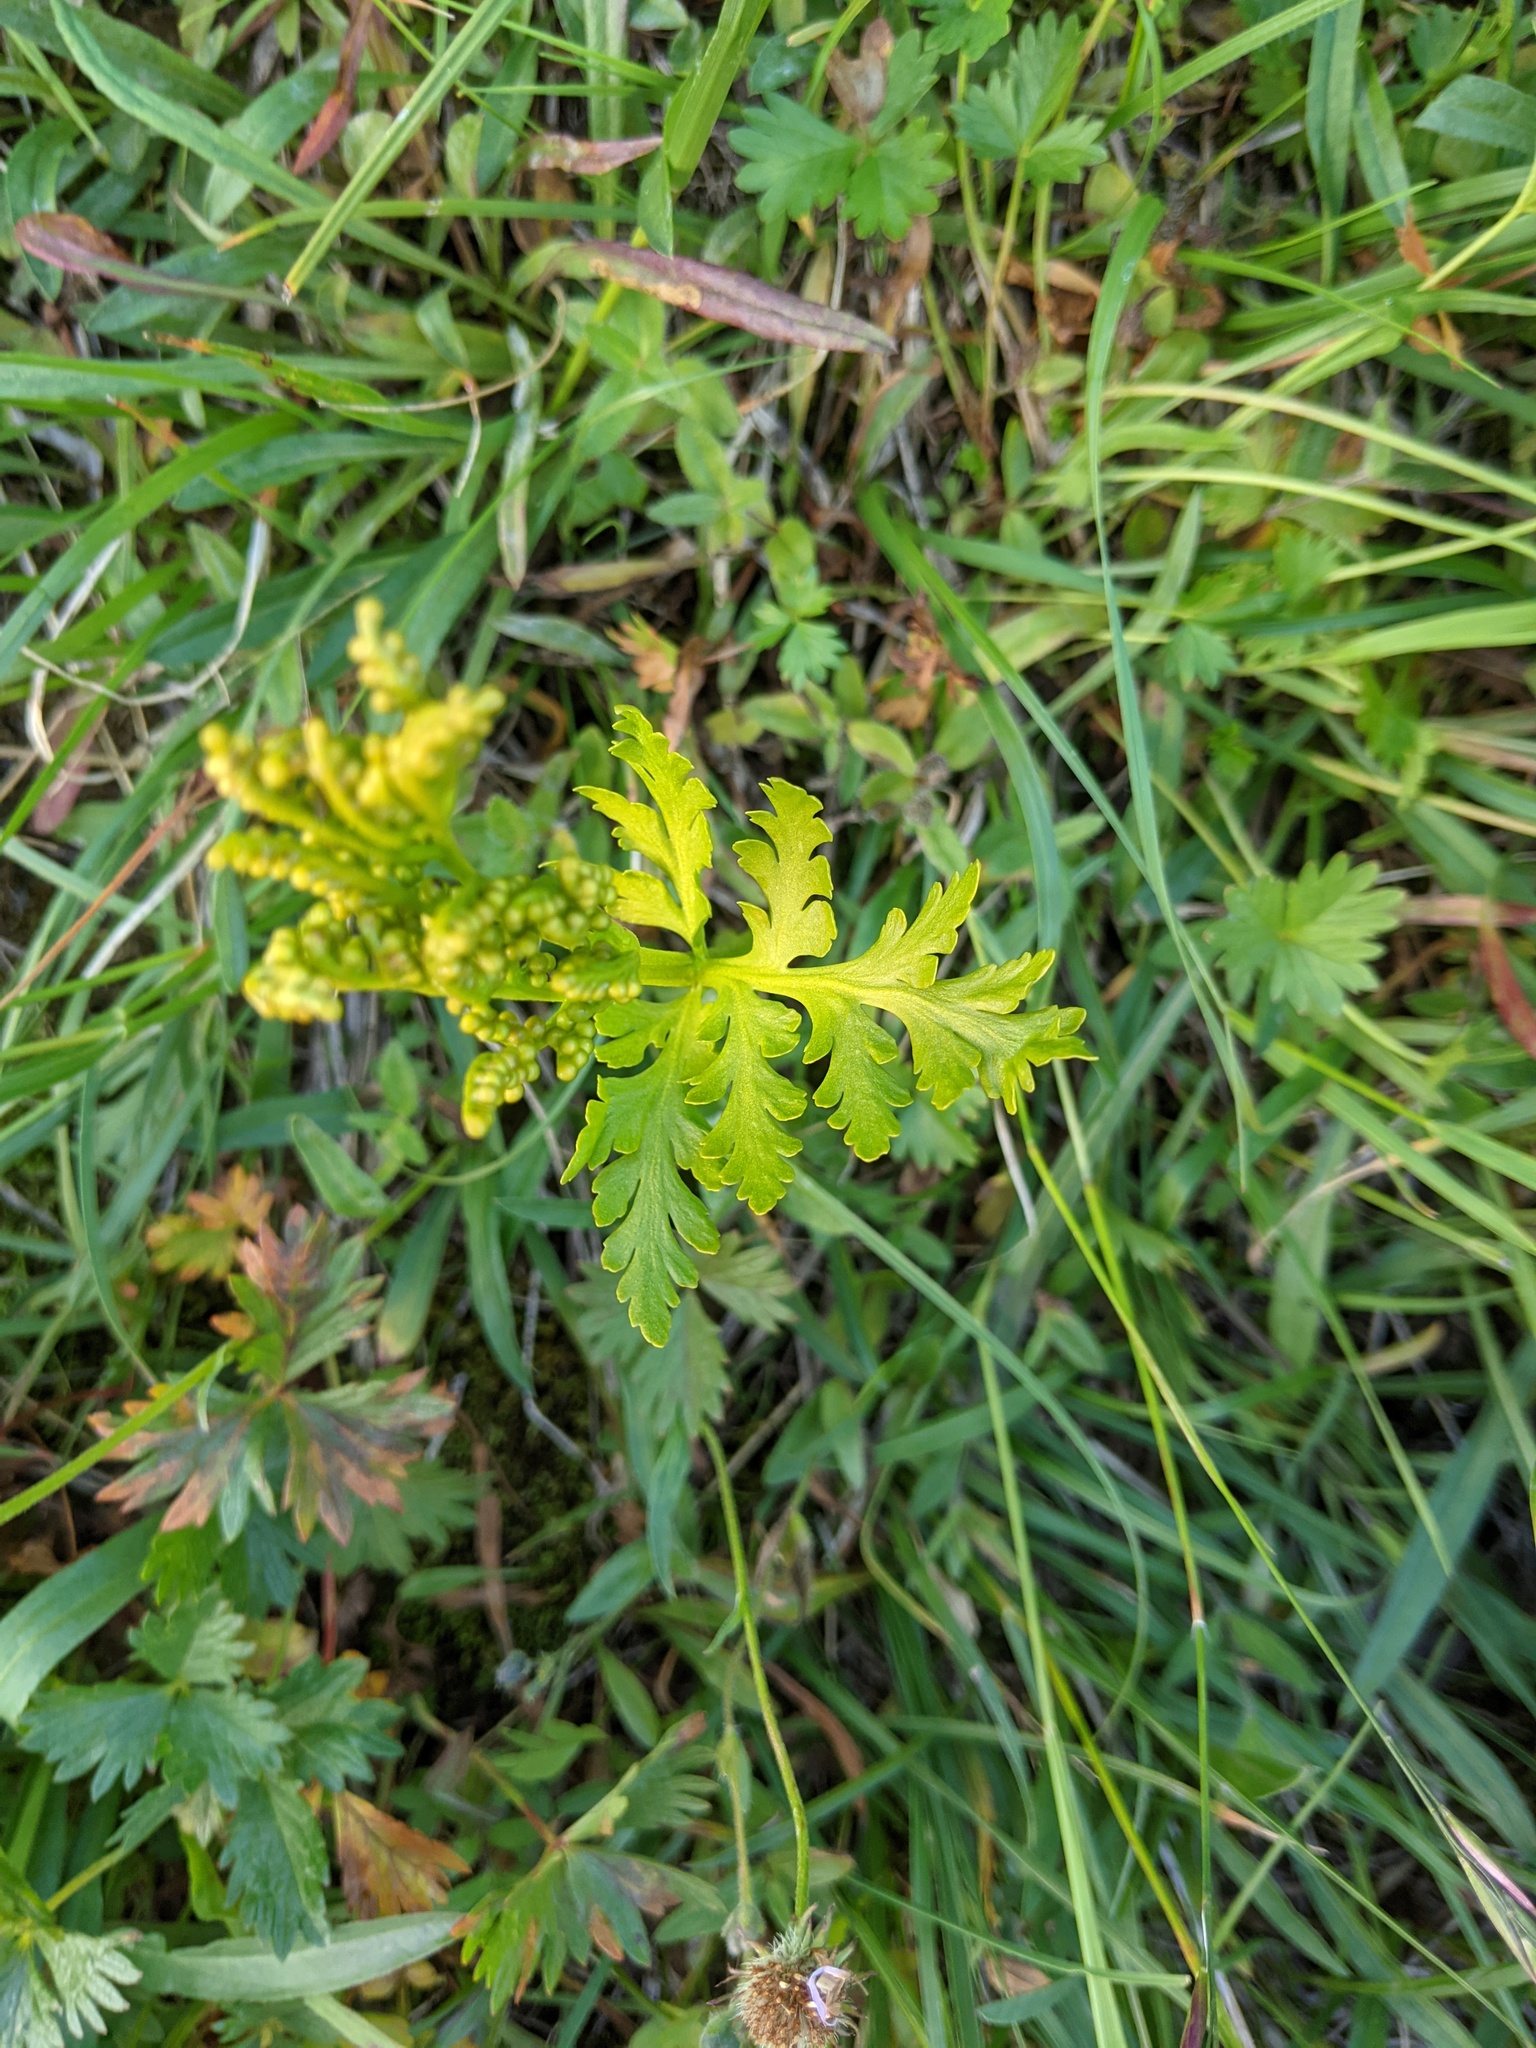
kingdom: Plantae
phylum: Tracheophyta
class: Polypodiopsida
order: Ophioglossales
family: Ophioglossaceae
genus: Botrychium
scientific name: Botrychium lanceolatum
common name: Lance-leaved moonwort
